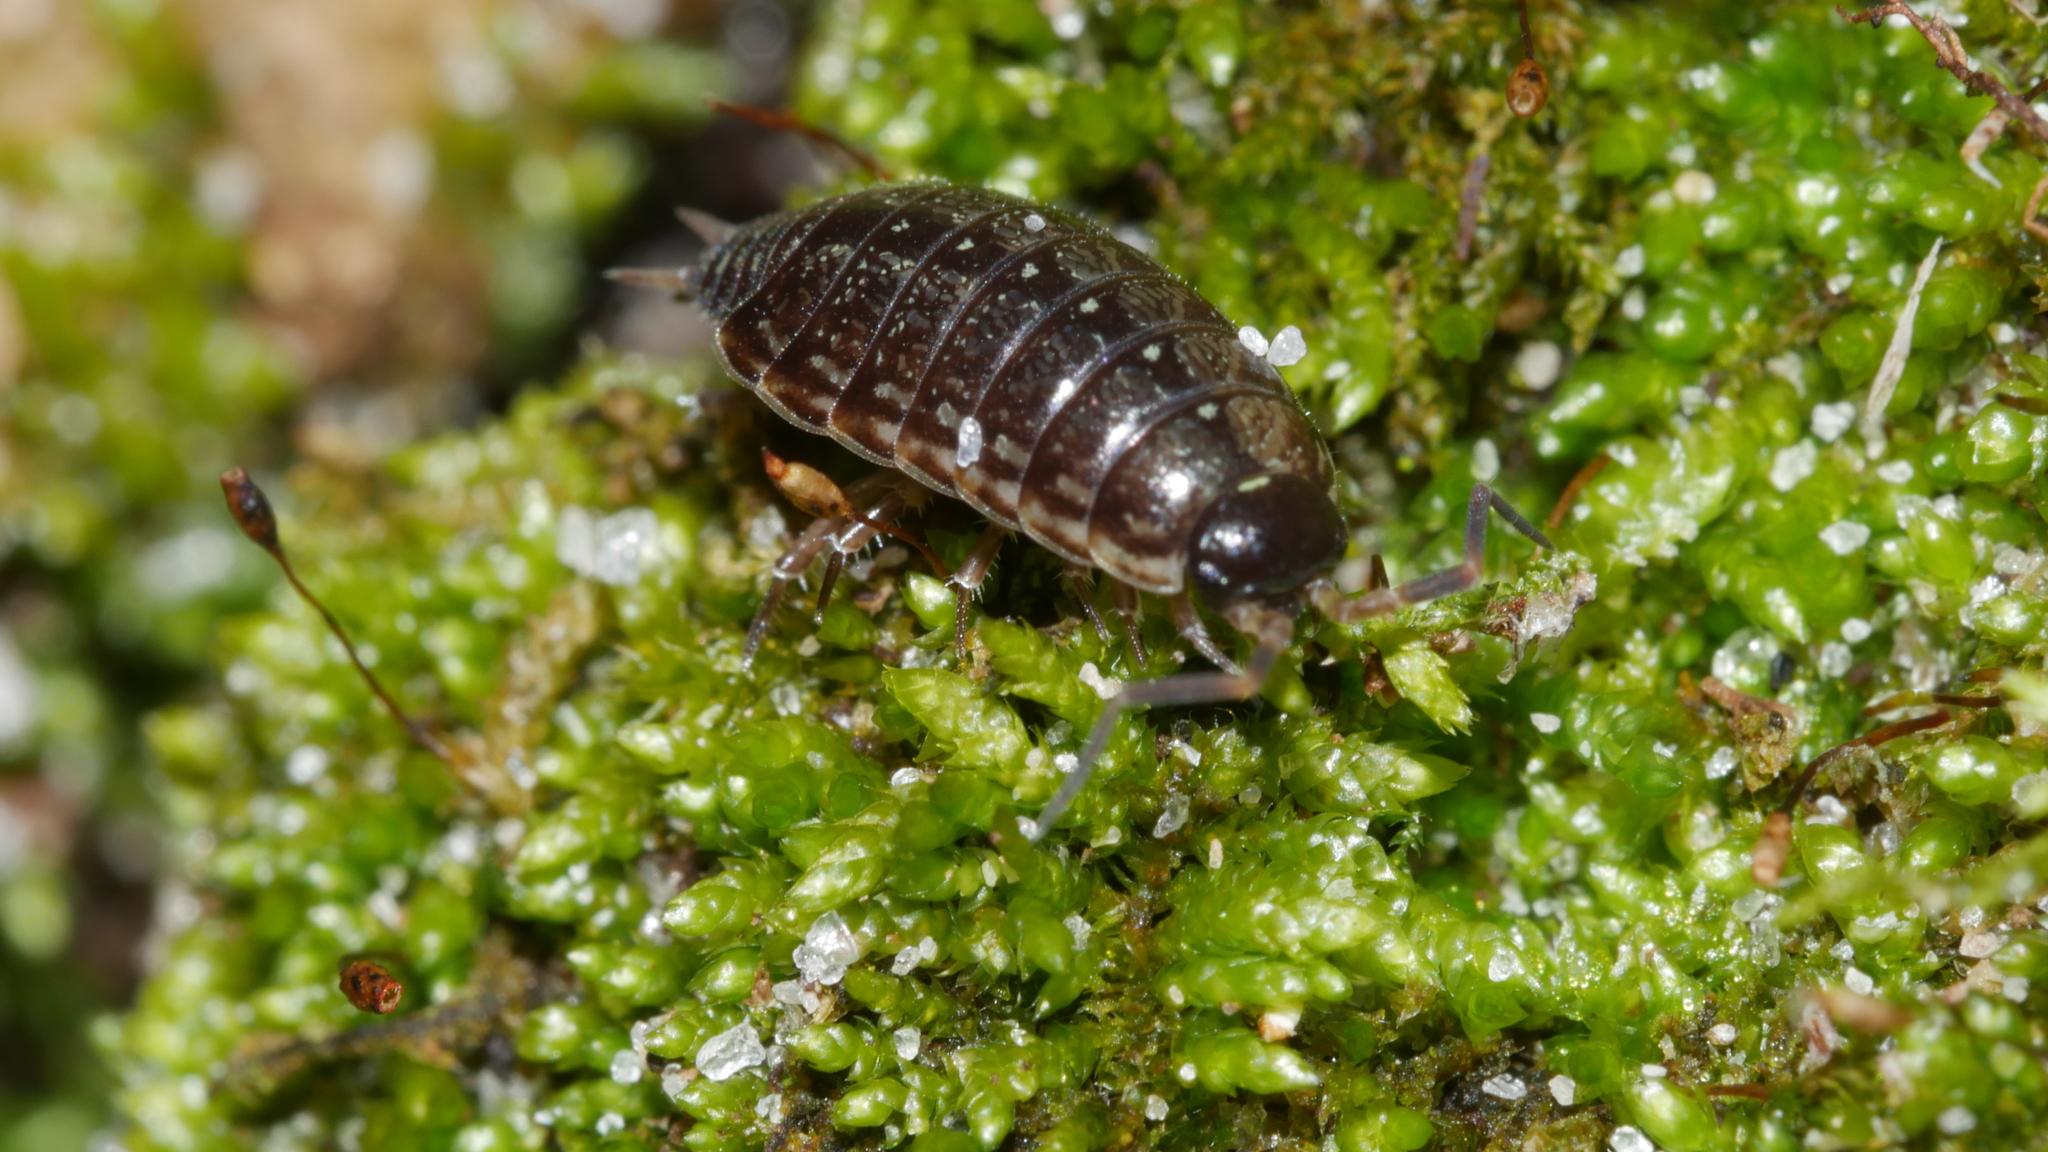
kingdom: Animalia
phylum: Arthropoda
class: Malacostraca
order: Isopoda
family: Philosciidae
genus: Philoscia
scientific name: Philoscia muscorum
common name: Common striped woodlouse
